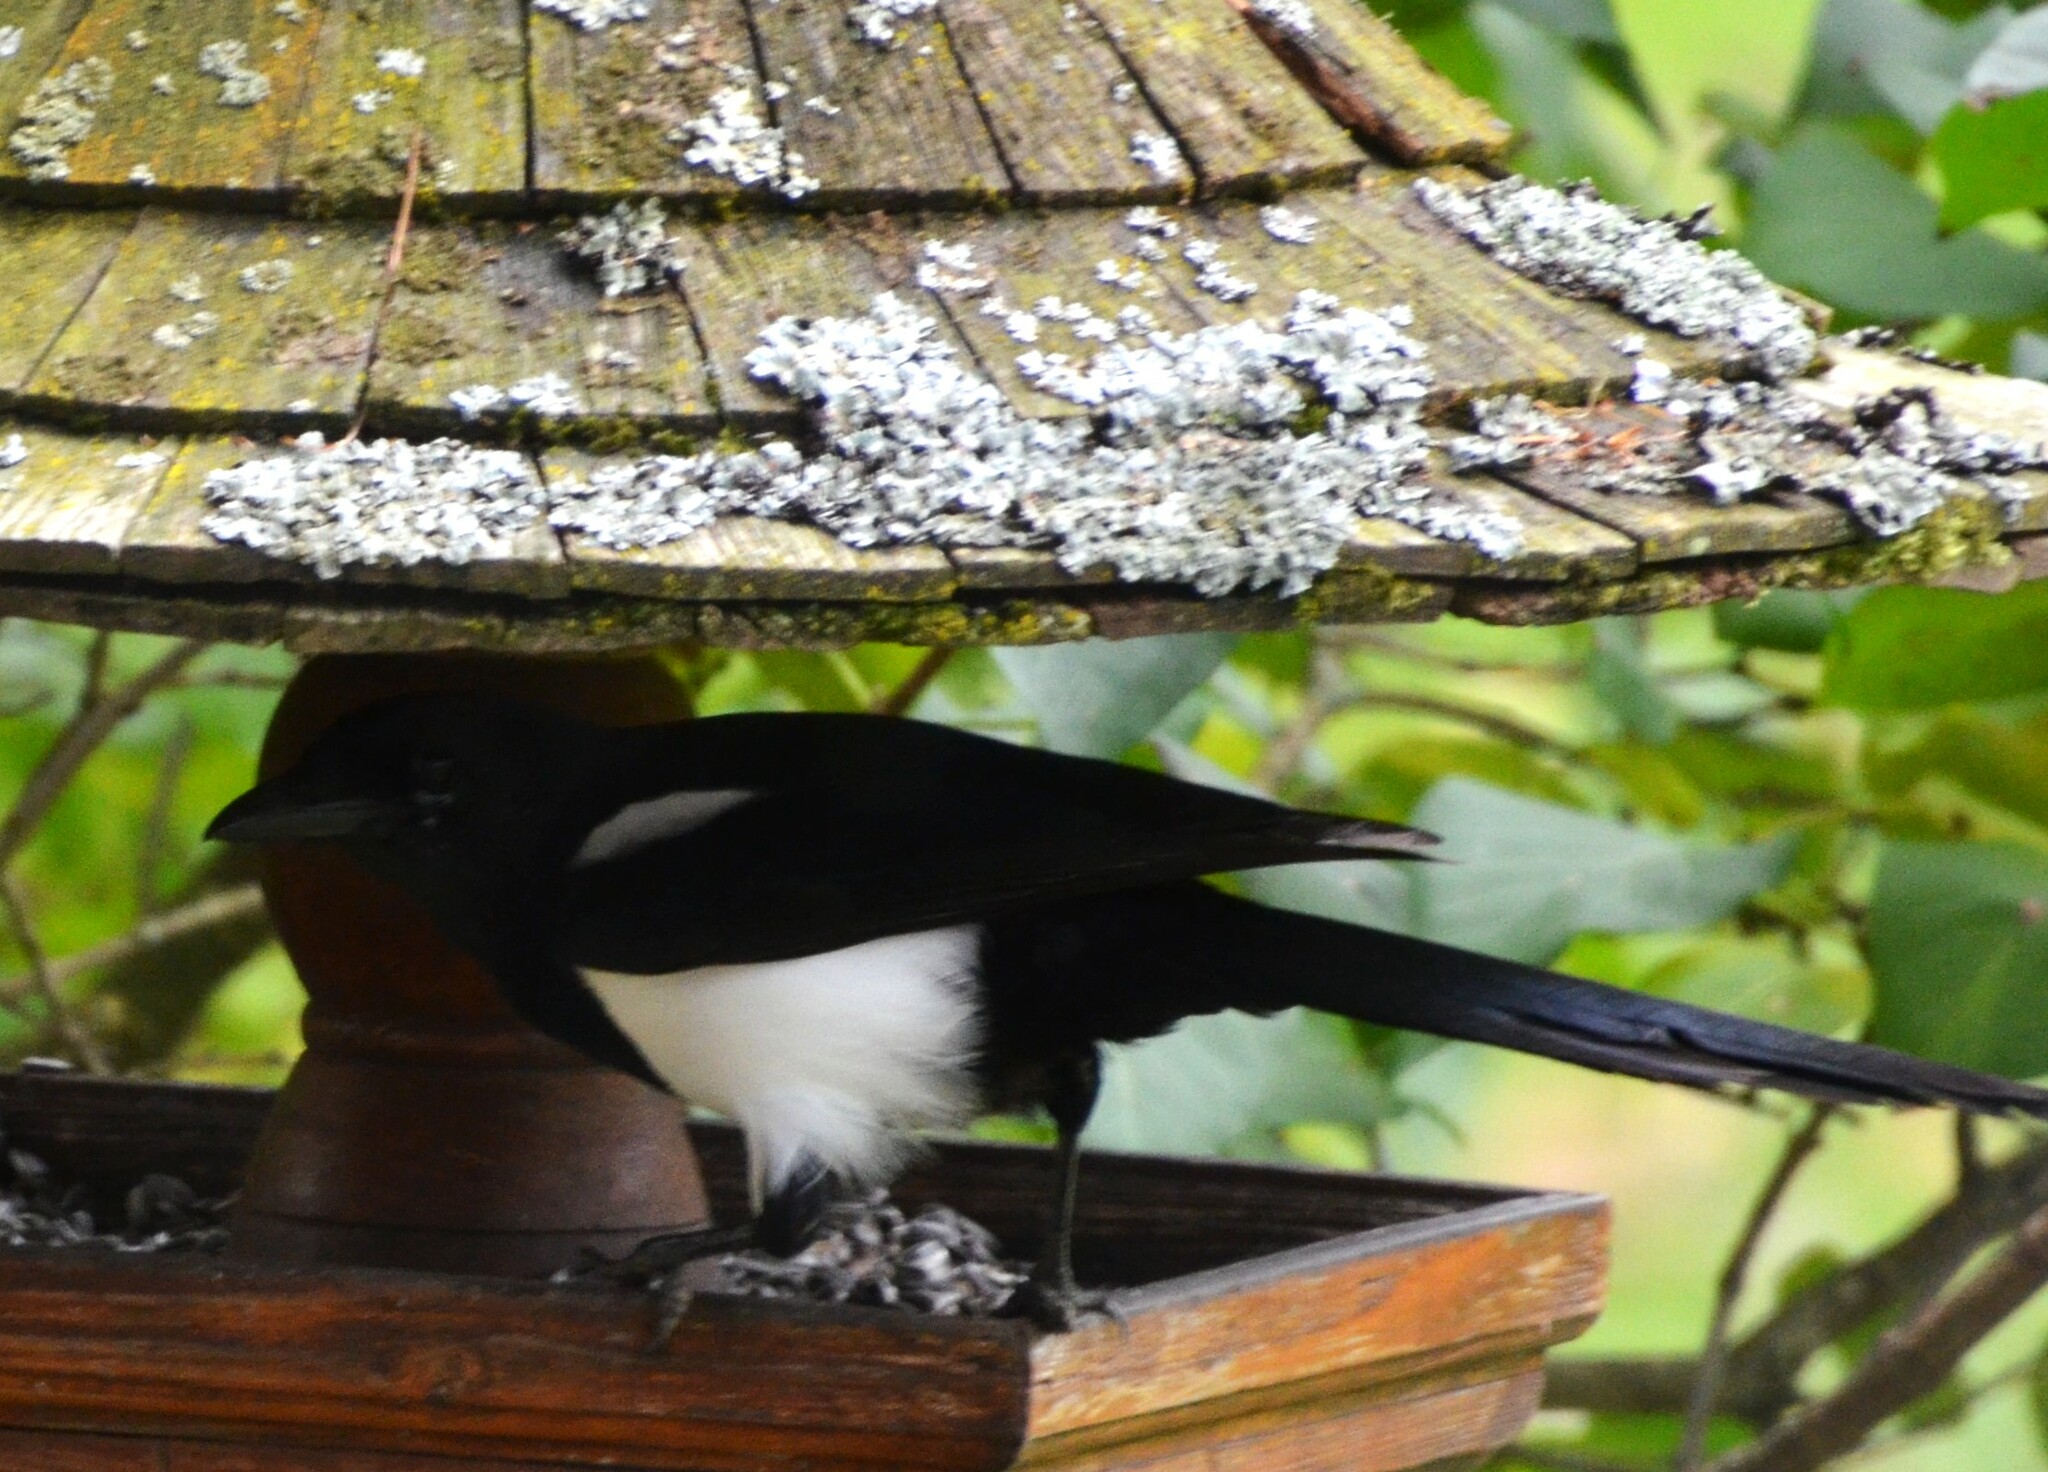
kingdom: Animalia
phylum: Chordata
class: Aves
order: Passeriformes
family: Corvidae
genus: Pica
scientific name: Pica pica
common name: Eurasian magpie
